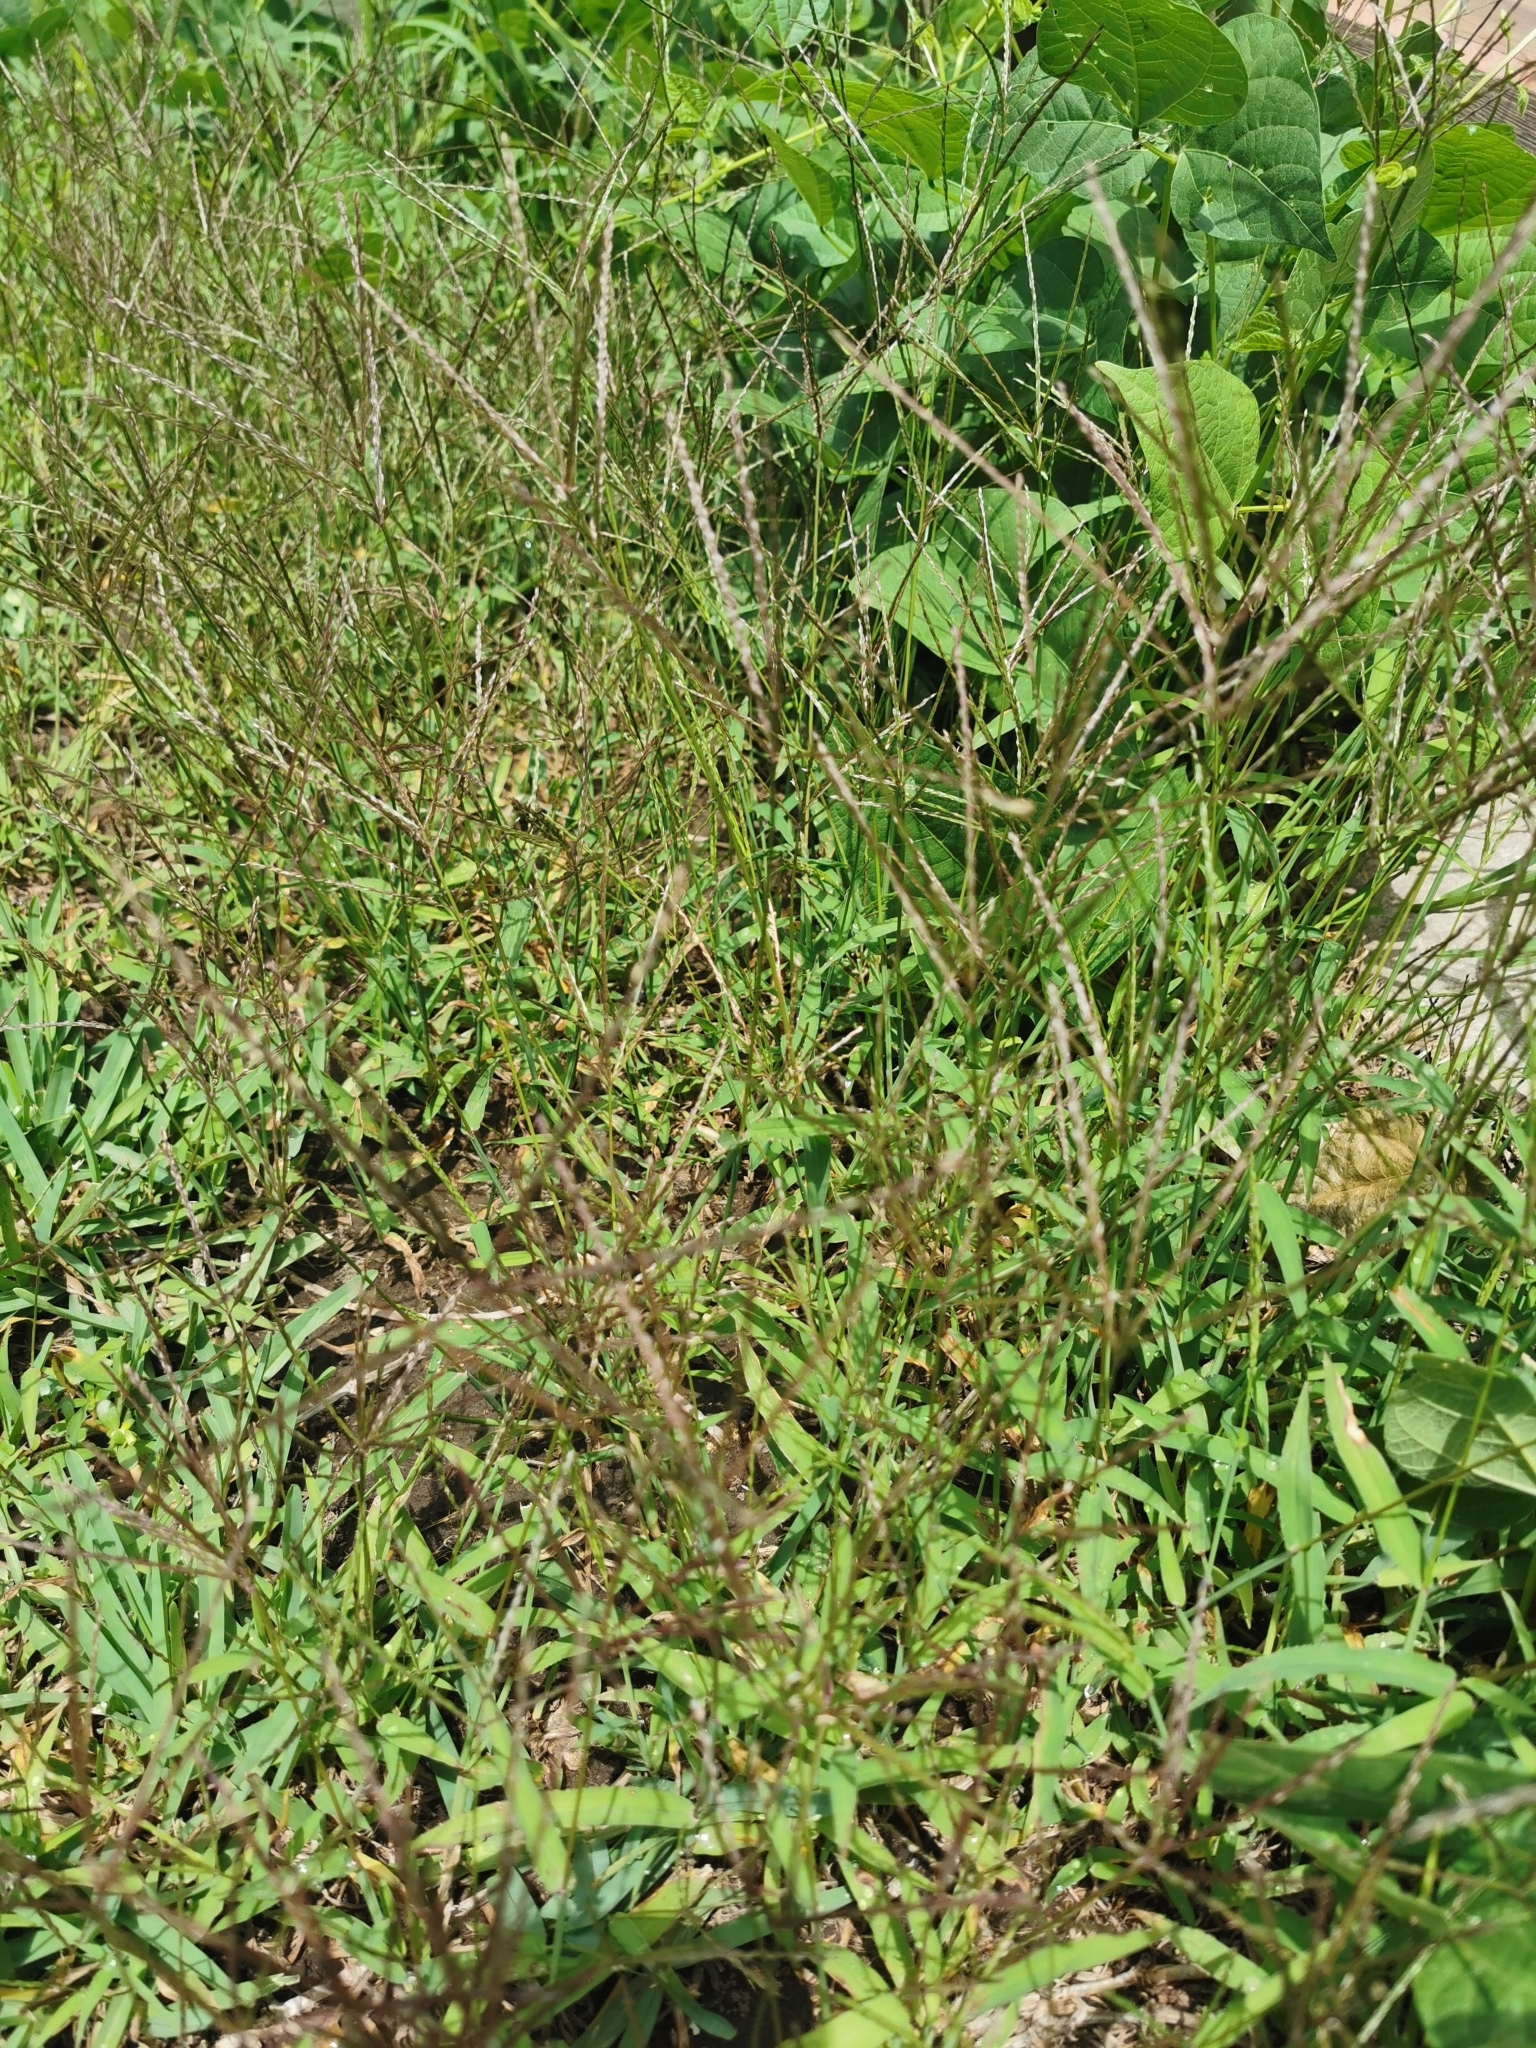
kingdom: Plantae
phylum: Tracheophyta
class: Liliopsida
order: Poales
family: Poaceae
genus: Digitaria
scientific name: Digitaria sanguinalis
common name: Hairy crabgrass
